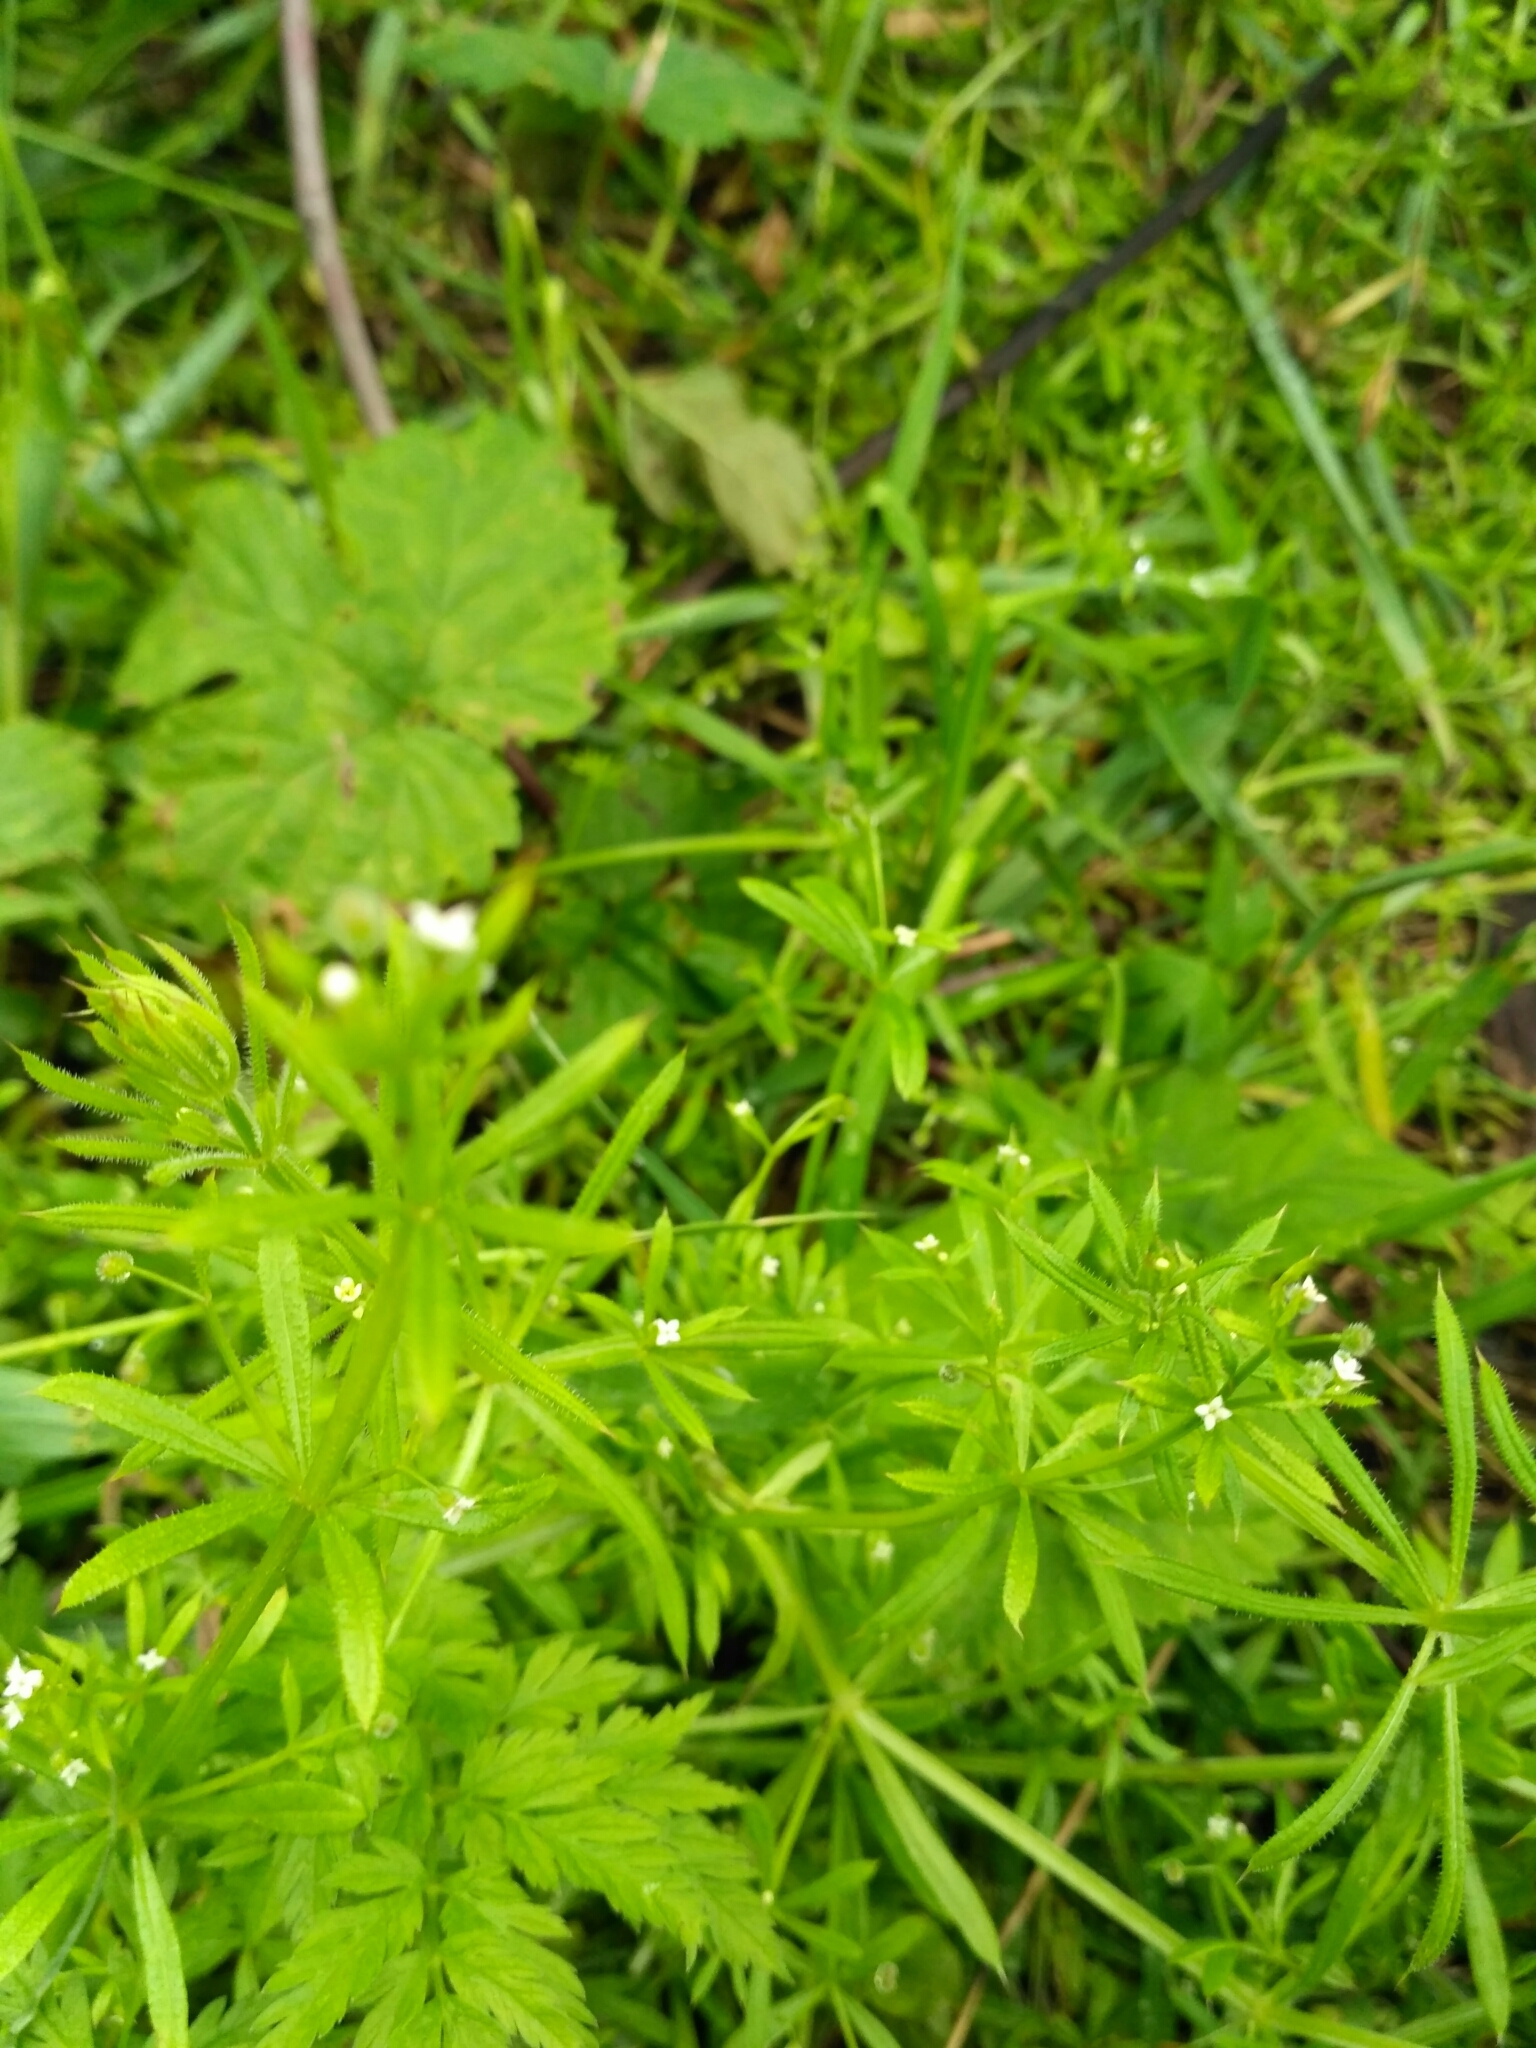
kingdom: Plantae
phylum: Tracheophyta
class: Magnoliopsida
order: Gentianales
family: Rubiaceae
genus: Galium
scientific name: Galium aparine
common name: Cleavers
